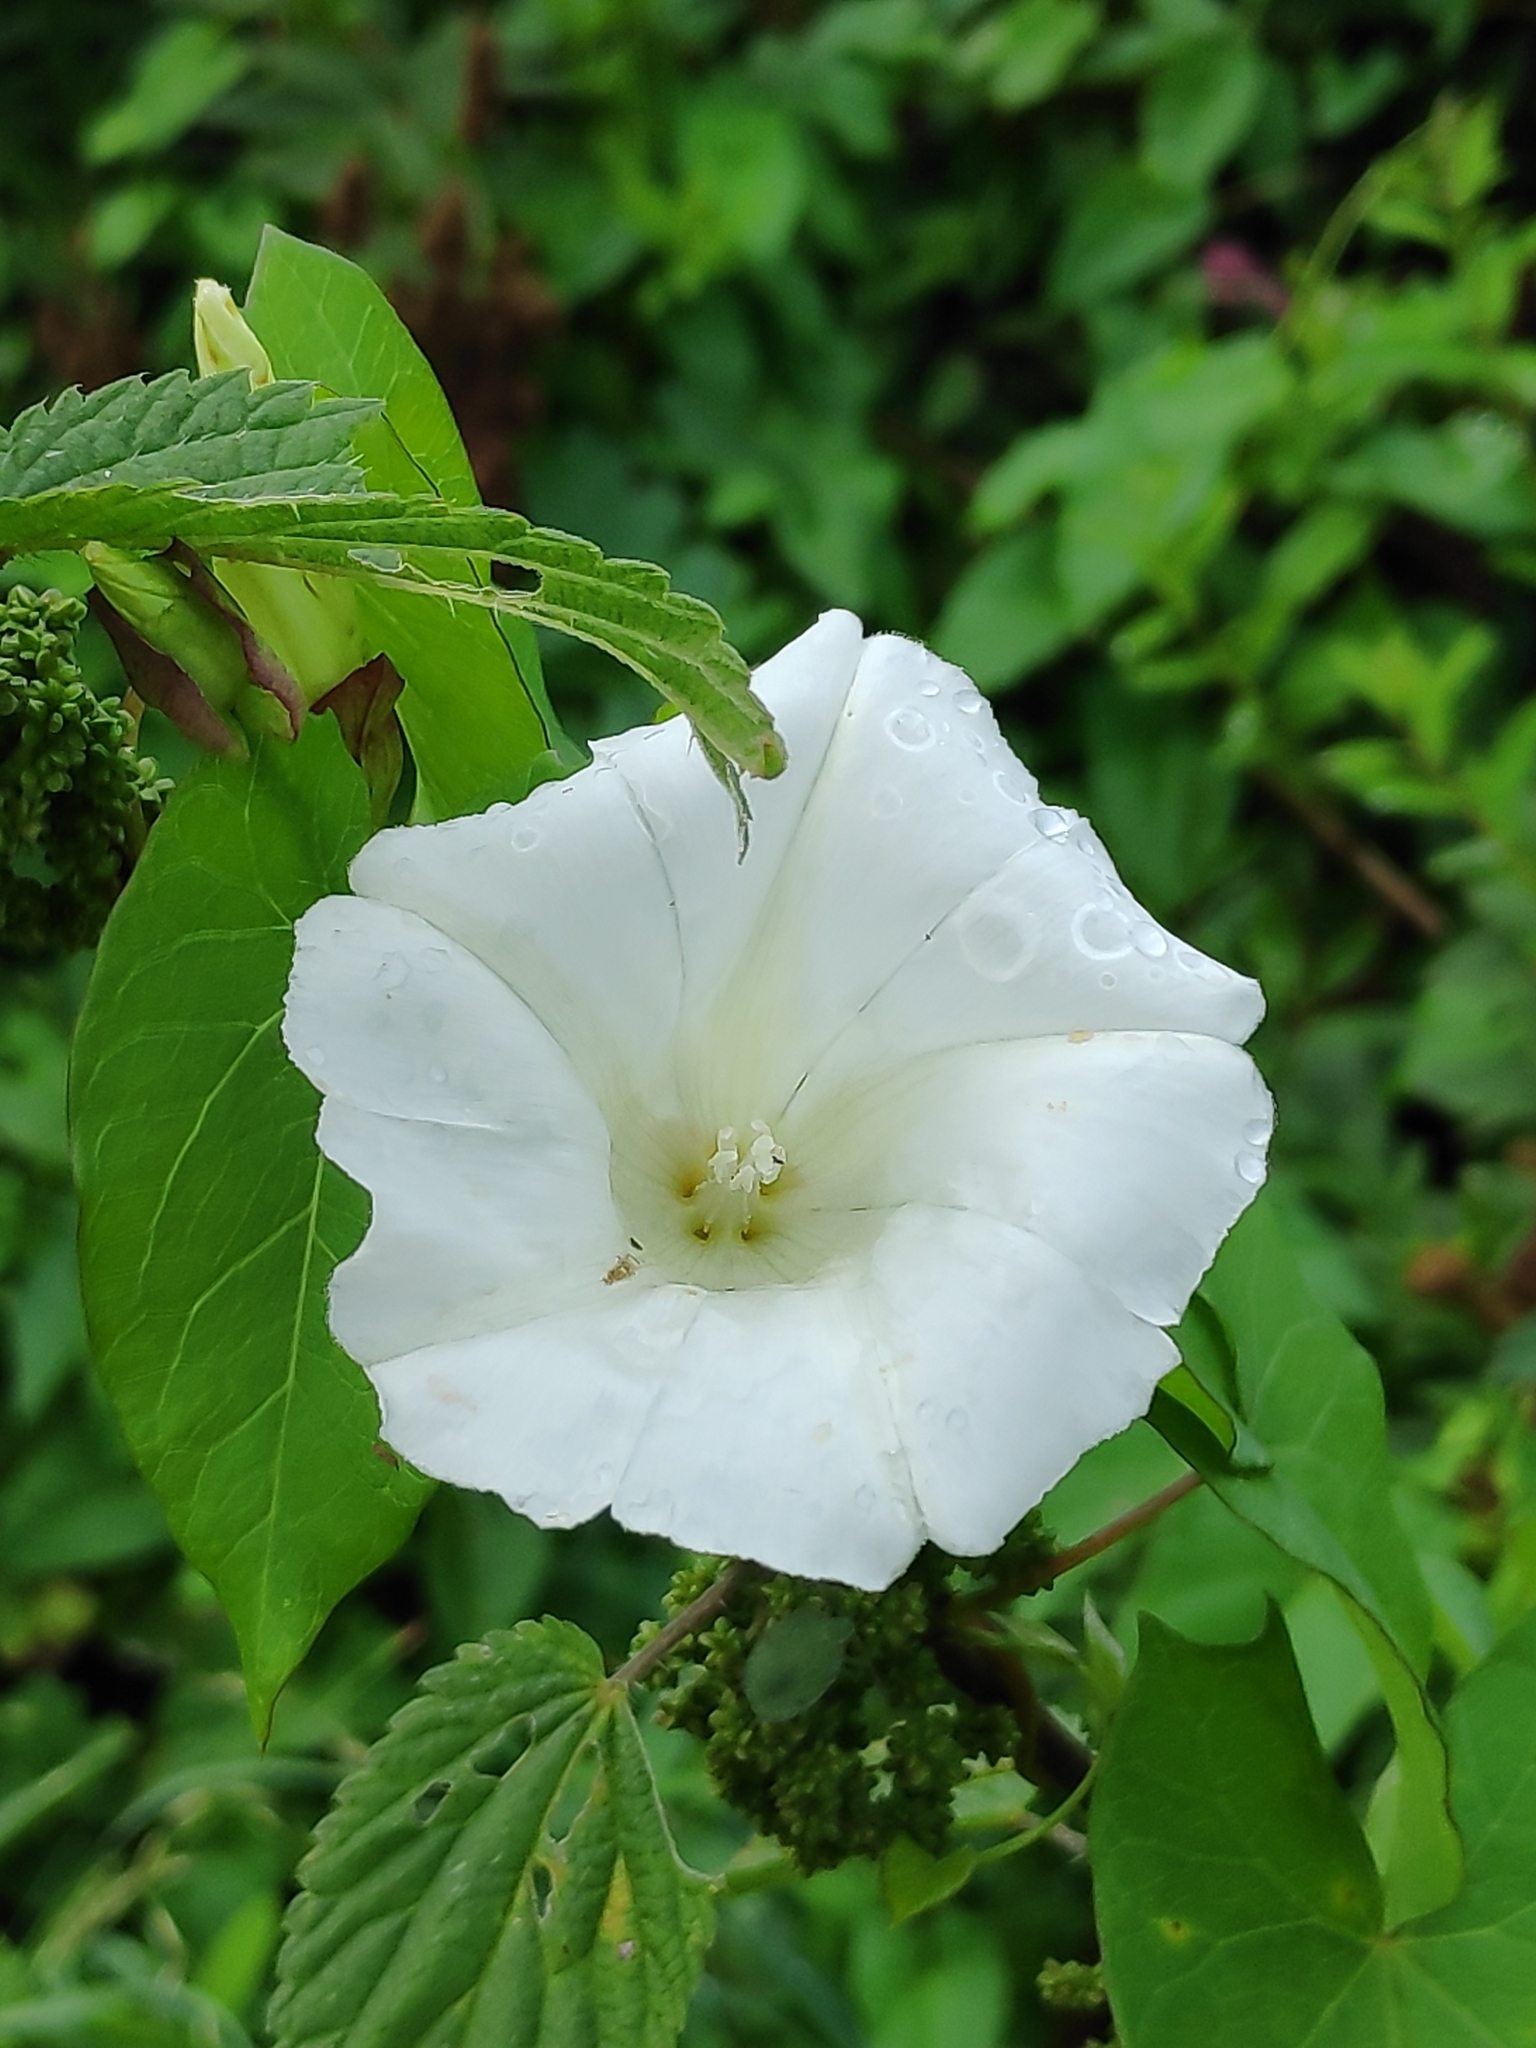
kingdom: Plantae
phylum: Tracheophyta
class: Magnoliopsida
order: Solanales
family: Convolvulaceae
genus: Calystegia
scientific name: Calystegia sepium
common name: Hedge bindweed
